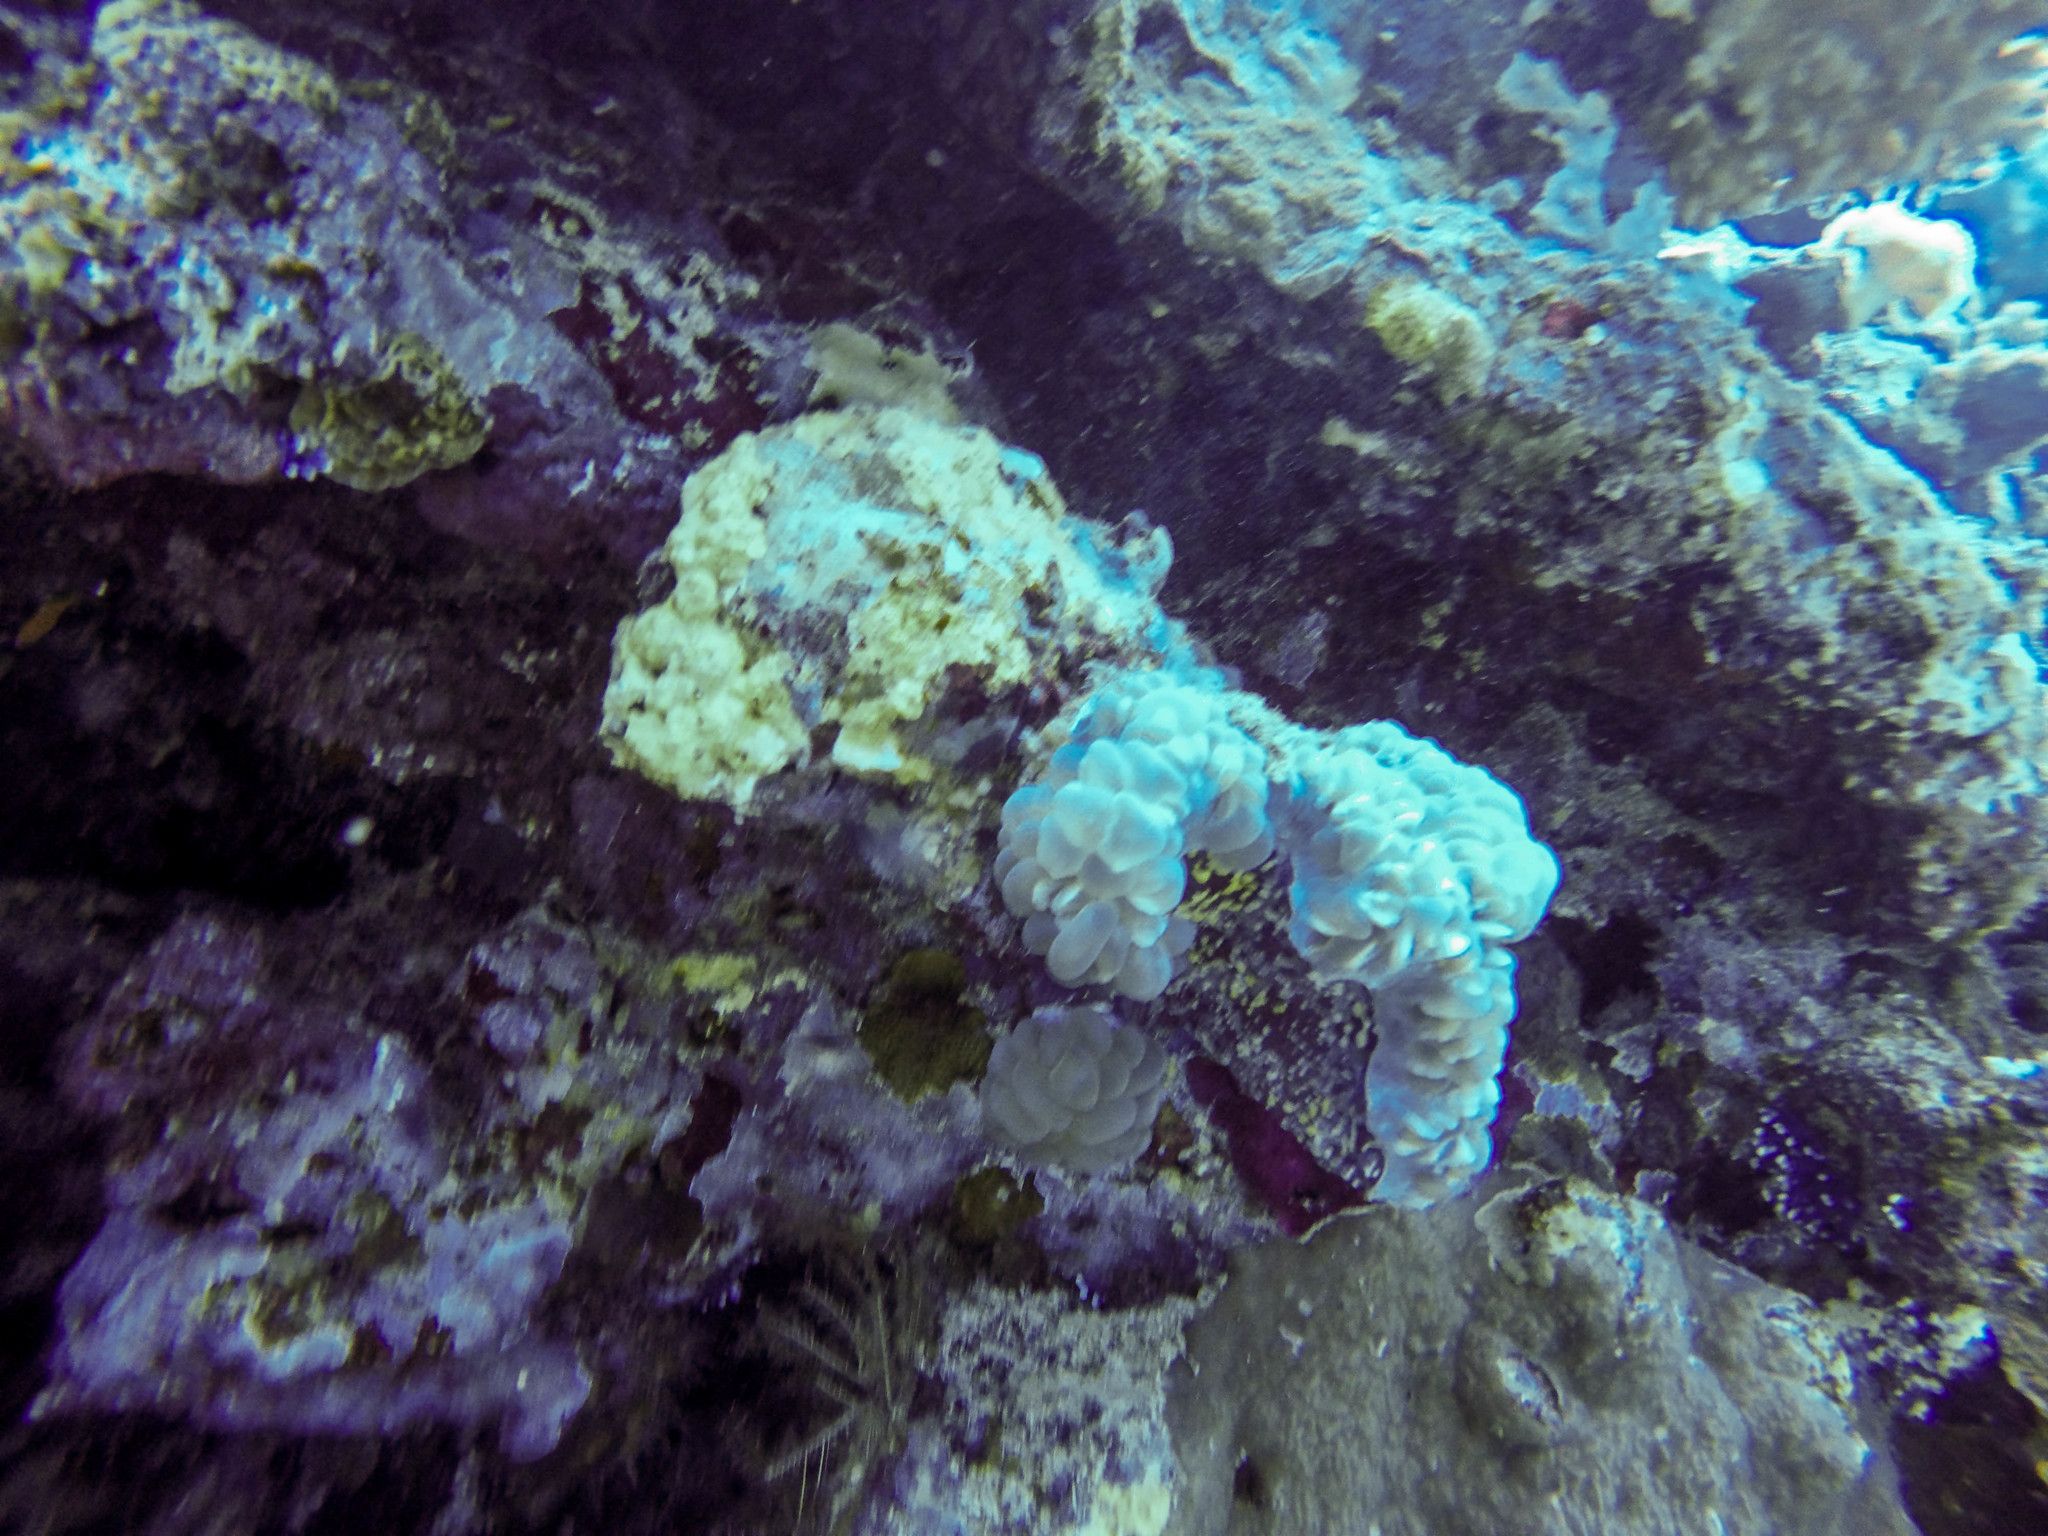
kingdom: Animalia
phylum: Cnidaria
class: Anthozoa
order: Scleractinia
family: Plerogyridae
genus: Plerogyra
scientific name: Plerogyra sinuosa
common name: Bubble coral
